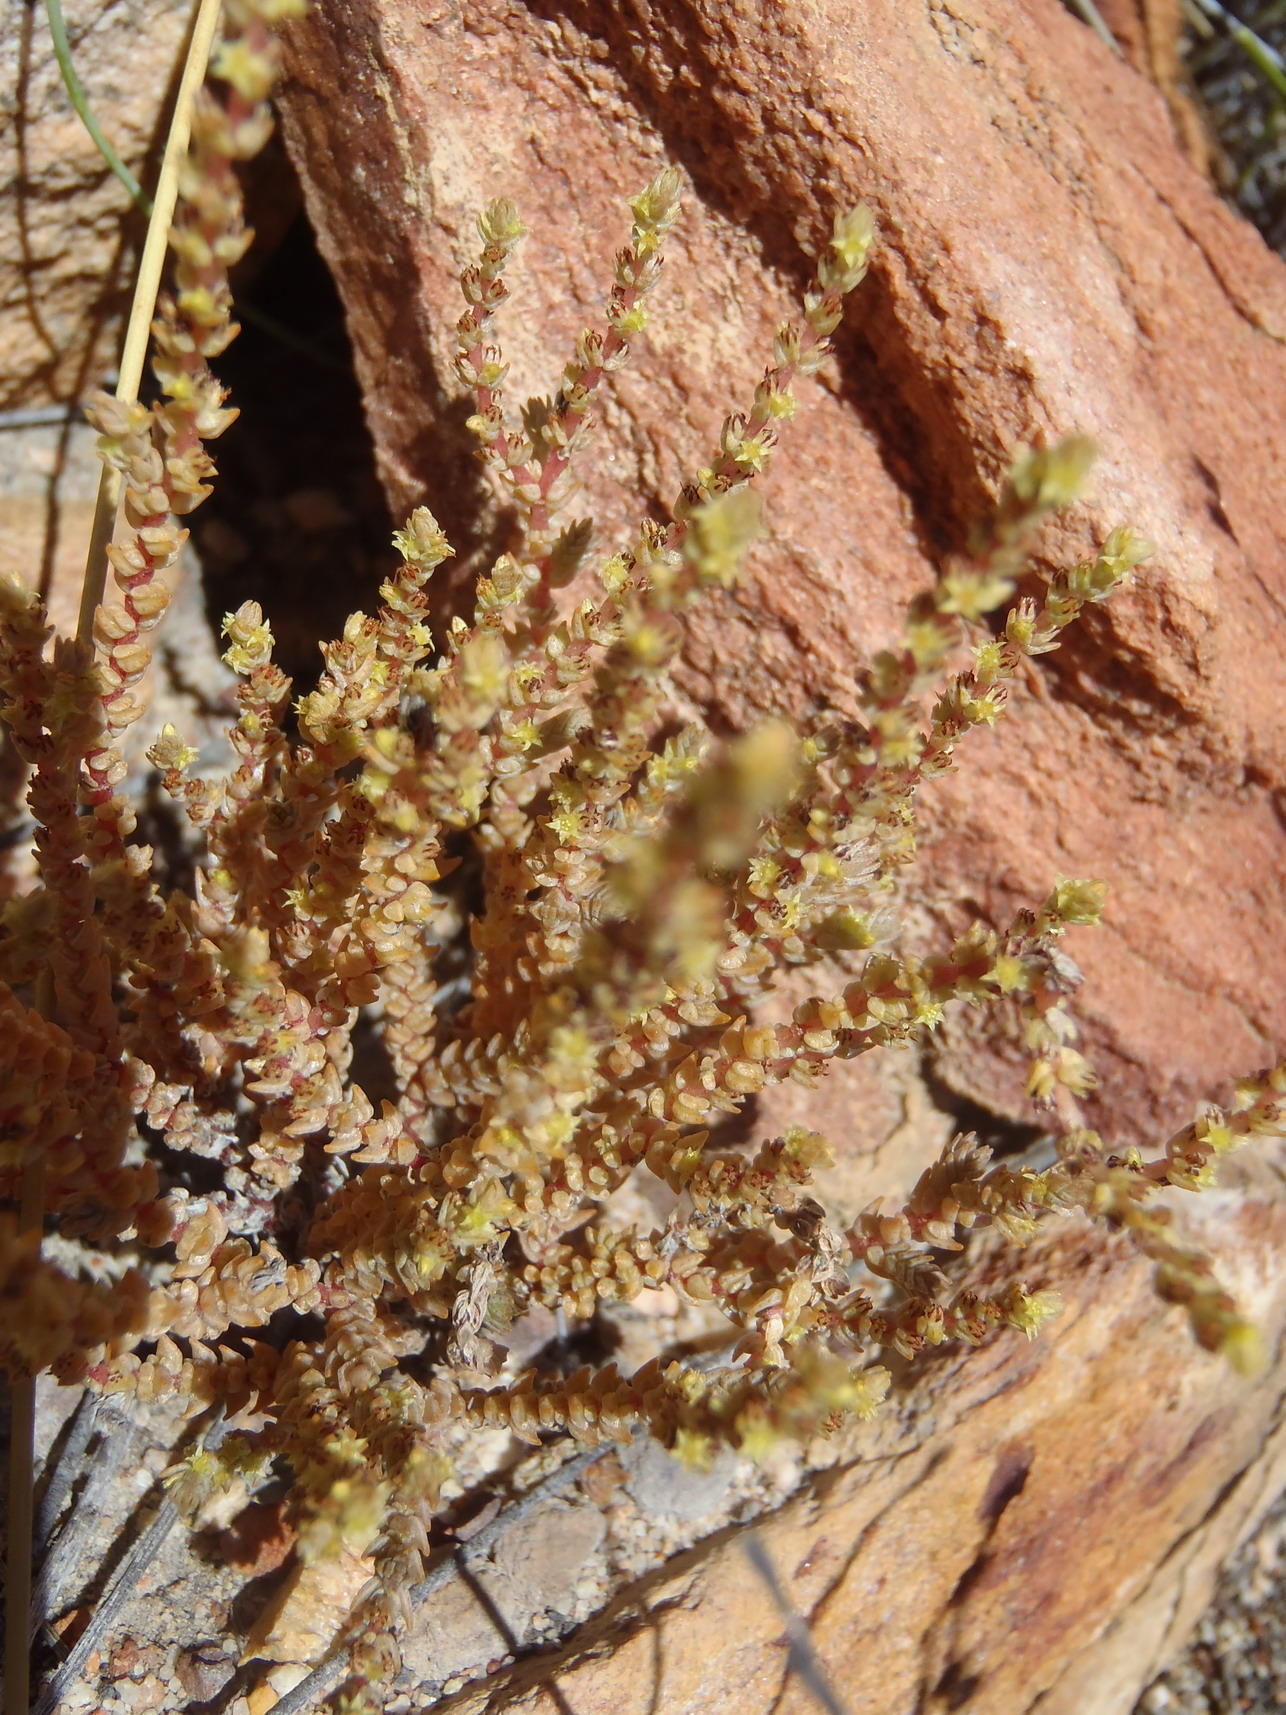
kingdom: Plantae
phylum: Tracheophyta
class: Magnoliopsida
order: Saxifragales
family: Crassulaceae
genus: Crassula
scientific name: Crassula muscosa
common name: Toy-cypress
